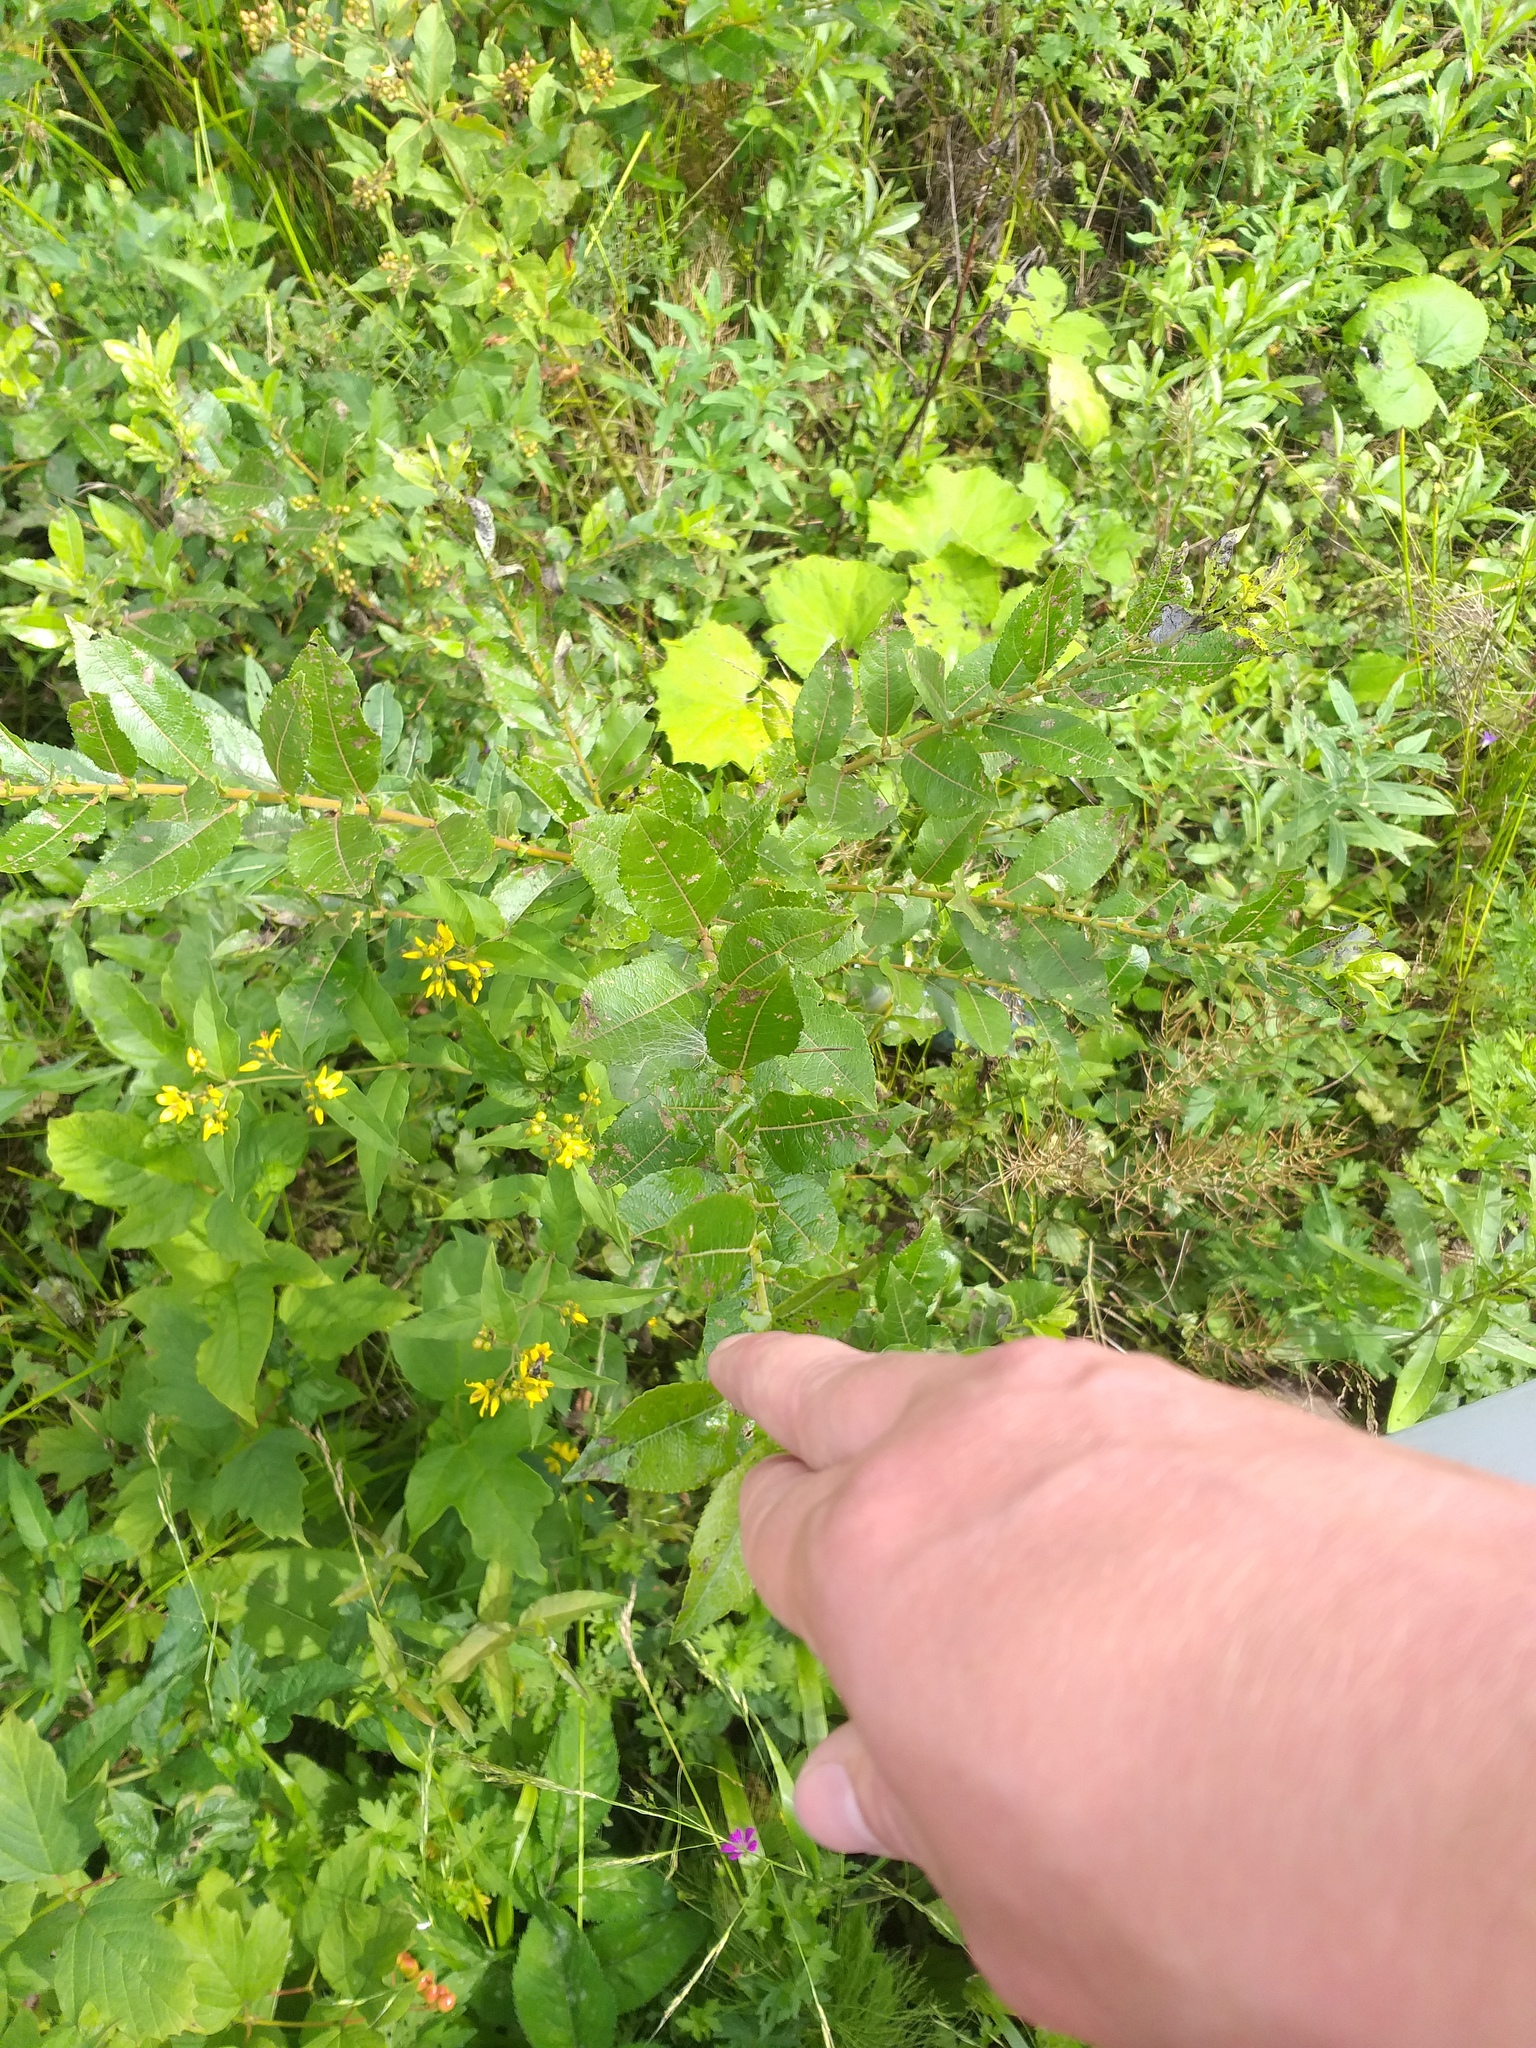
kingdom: Plantae
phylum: Tracheophyta
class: Magnoliopsida
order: Malpighiales
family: Salicaceae
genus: Salix
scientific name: Salix myrsinifolia
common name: Dark-leaved willow
